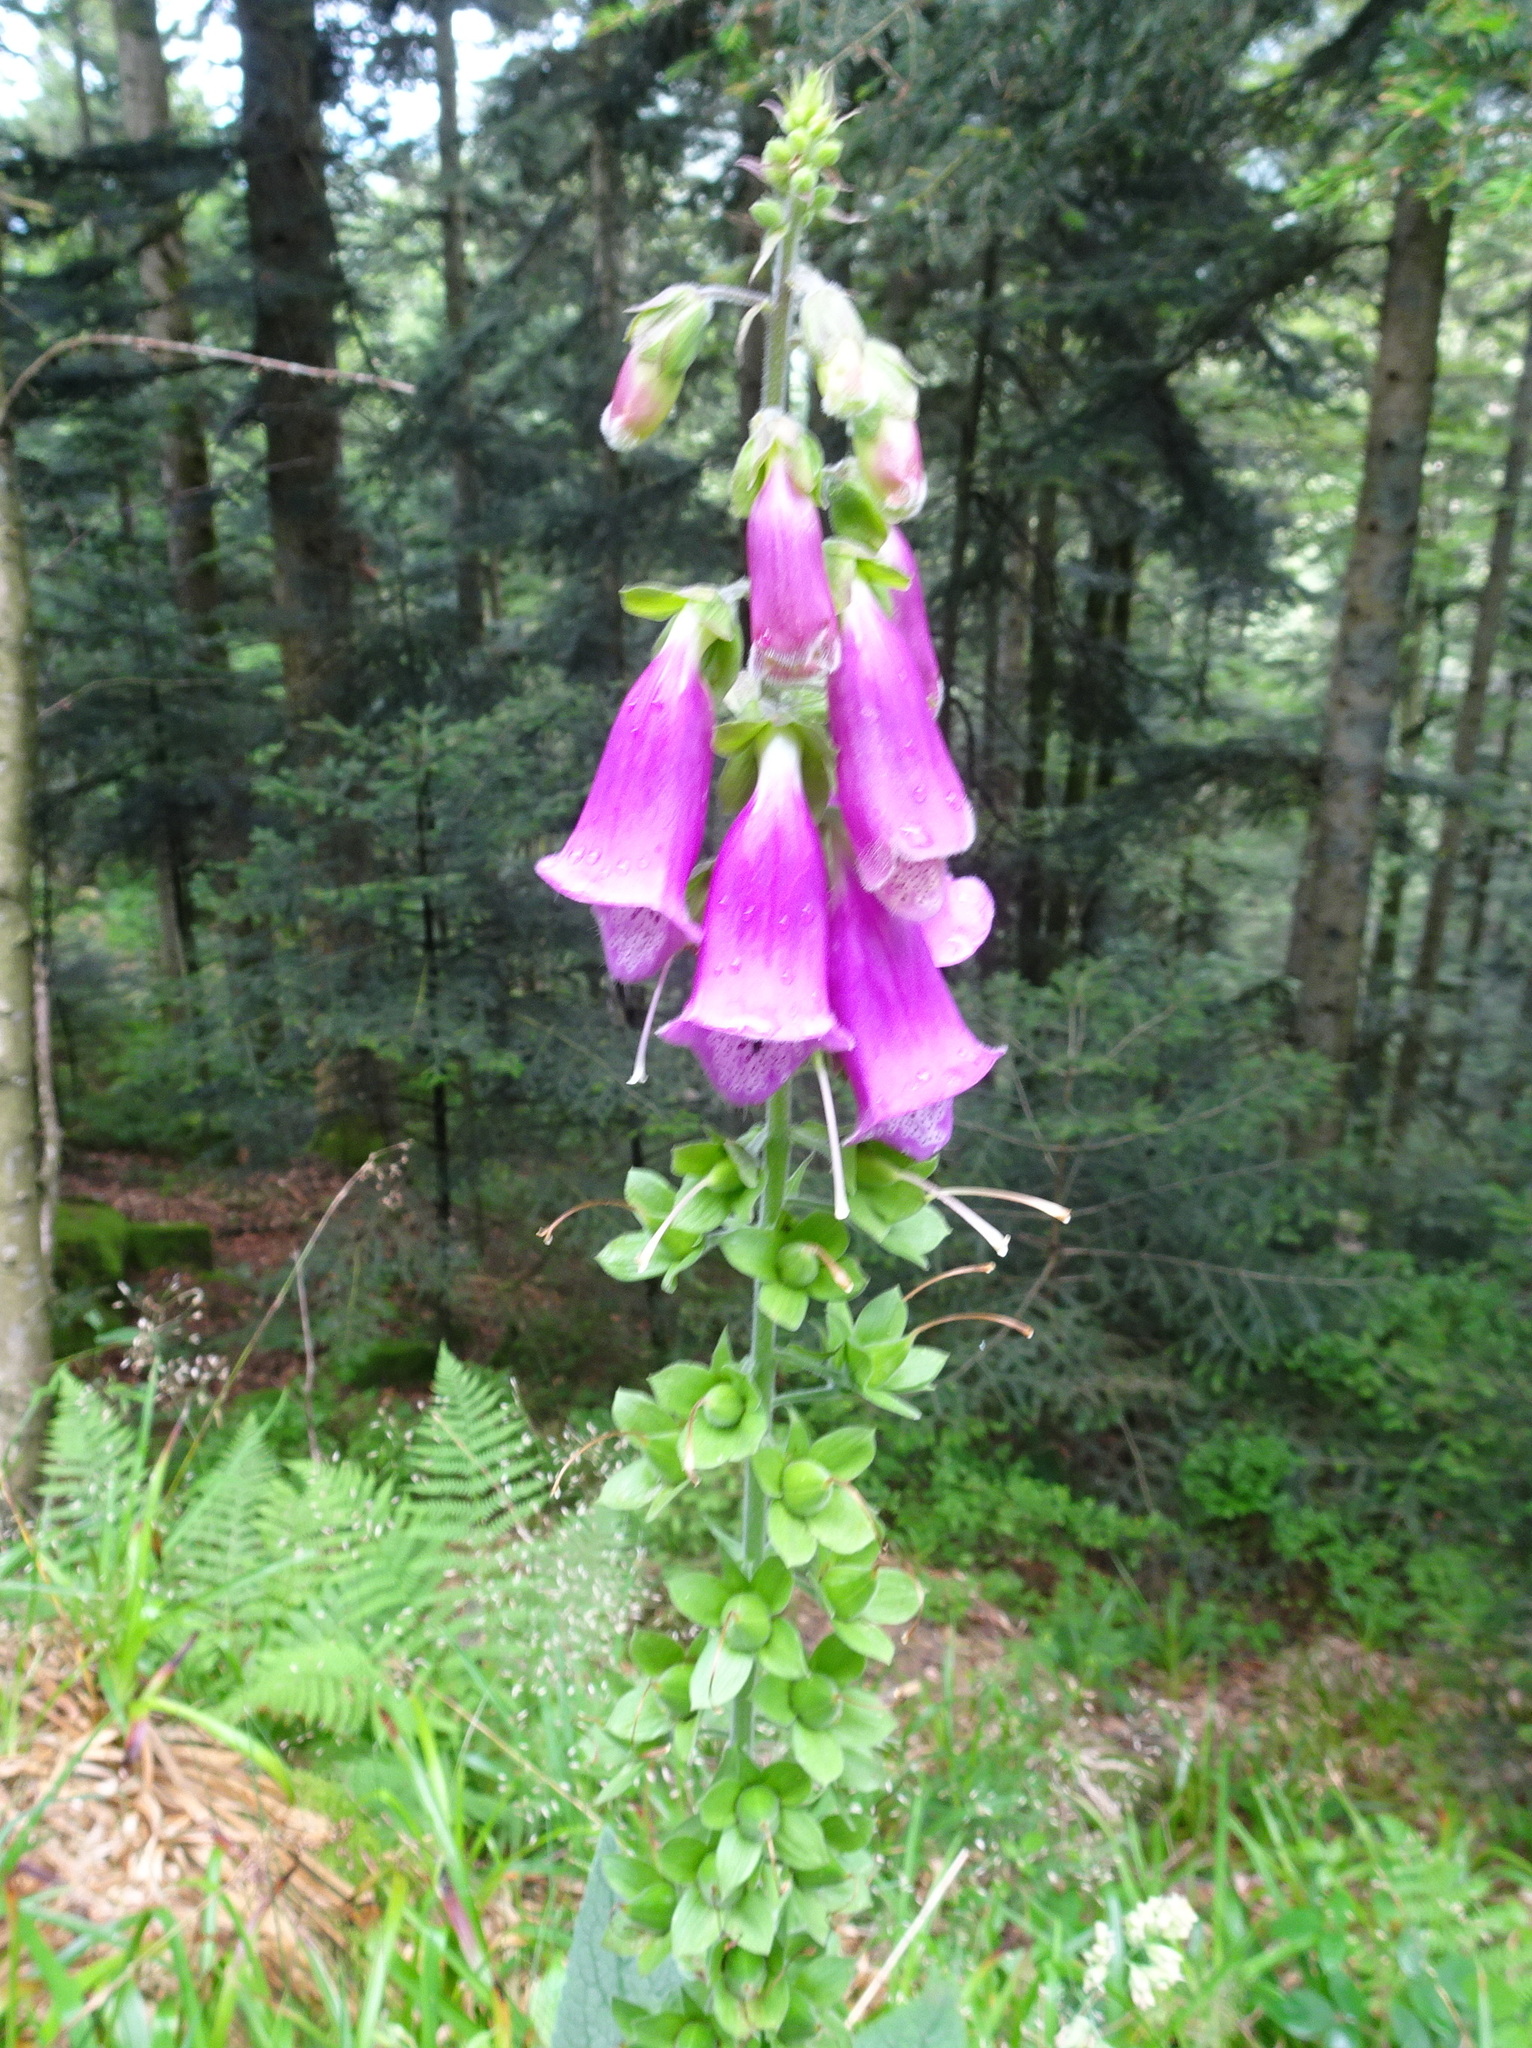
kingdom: Plantae
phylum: Tracheophyta
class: Magnoliopsida
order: Lamiales
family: Plantaginaceae
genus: Digitalis
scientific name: Digitalis purpurea
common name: Foxglove
